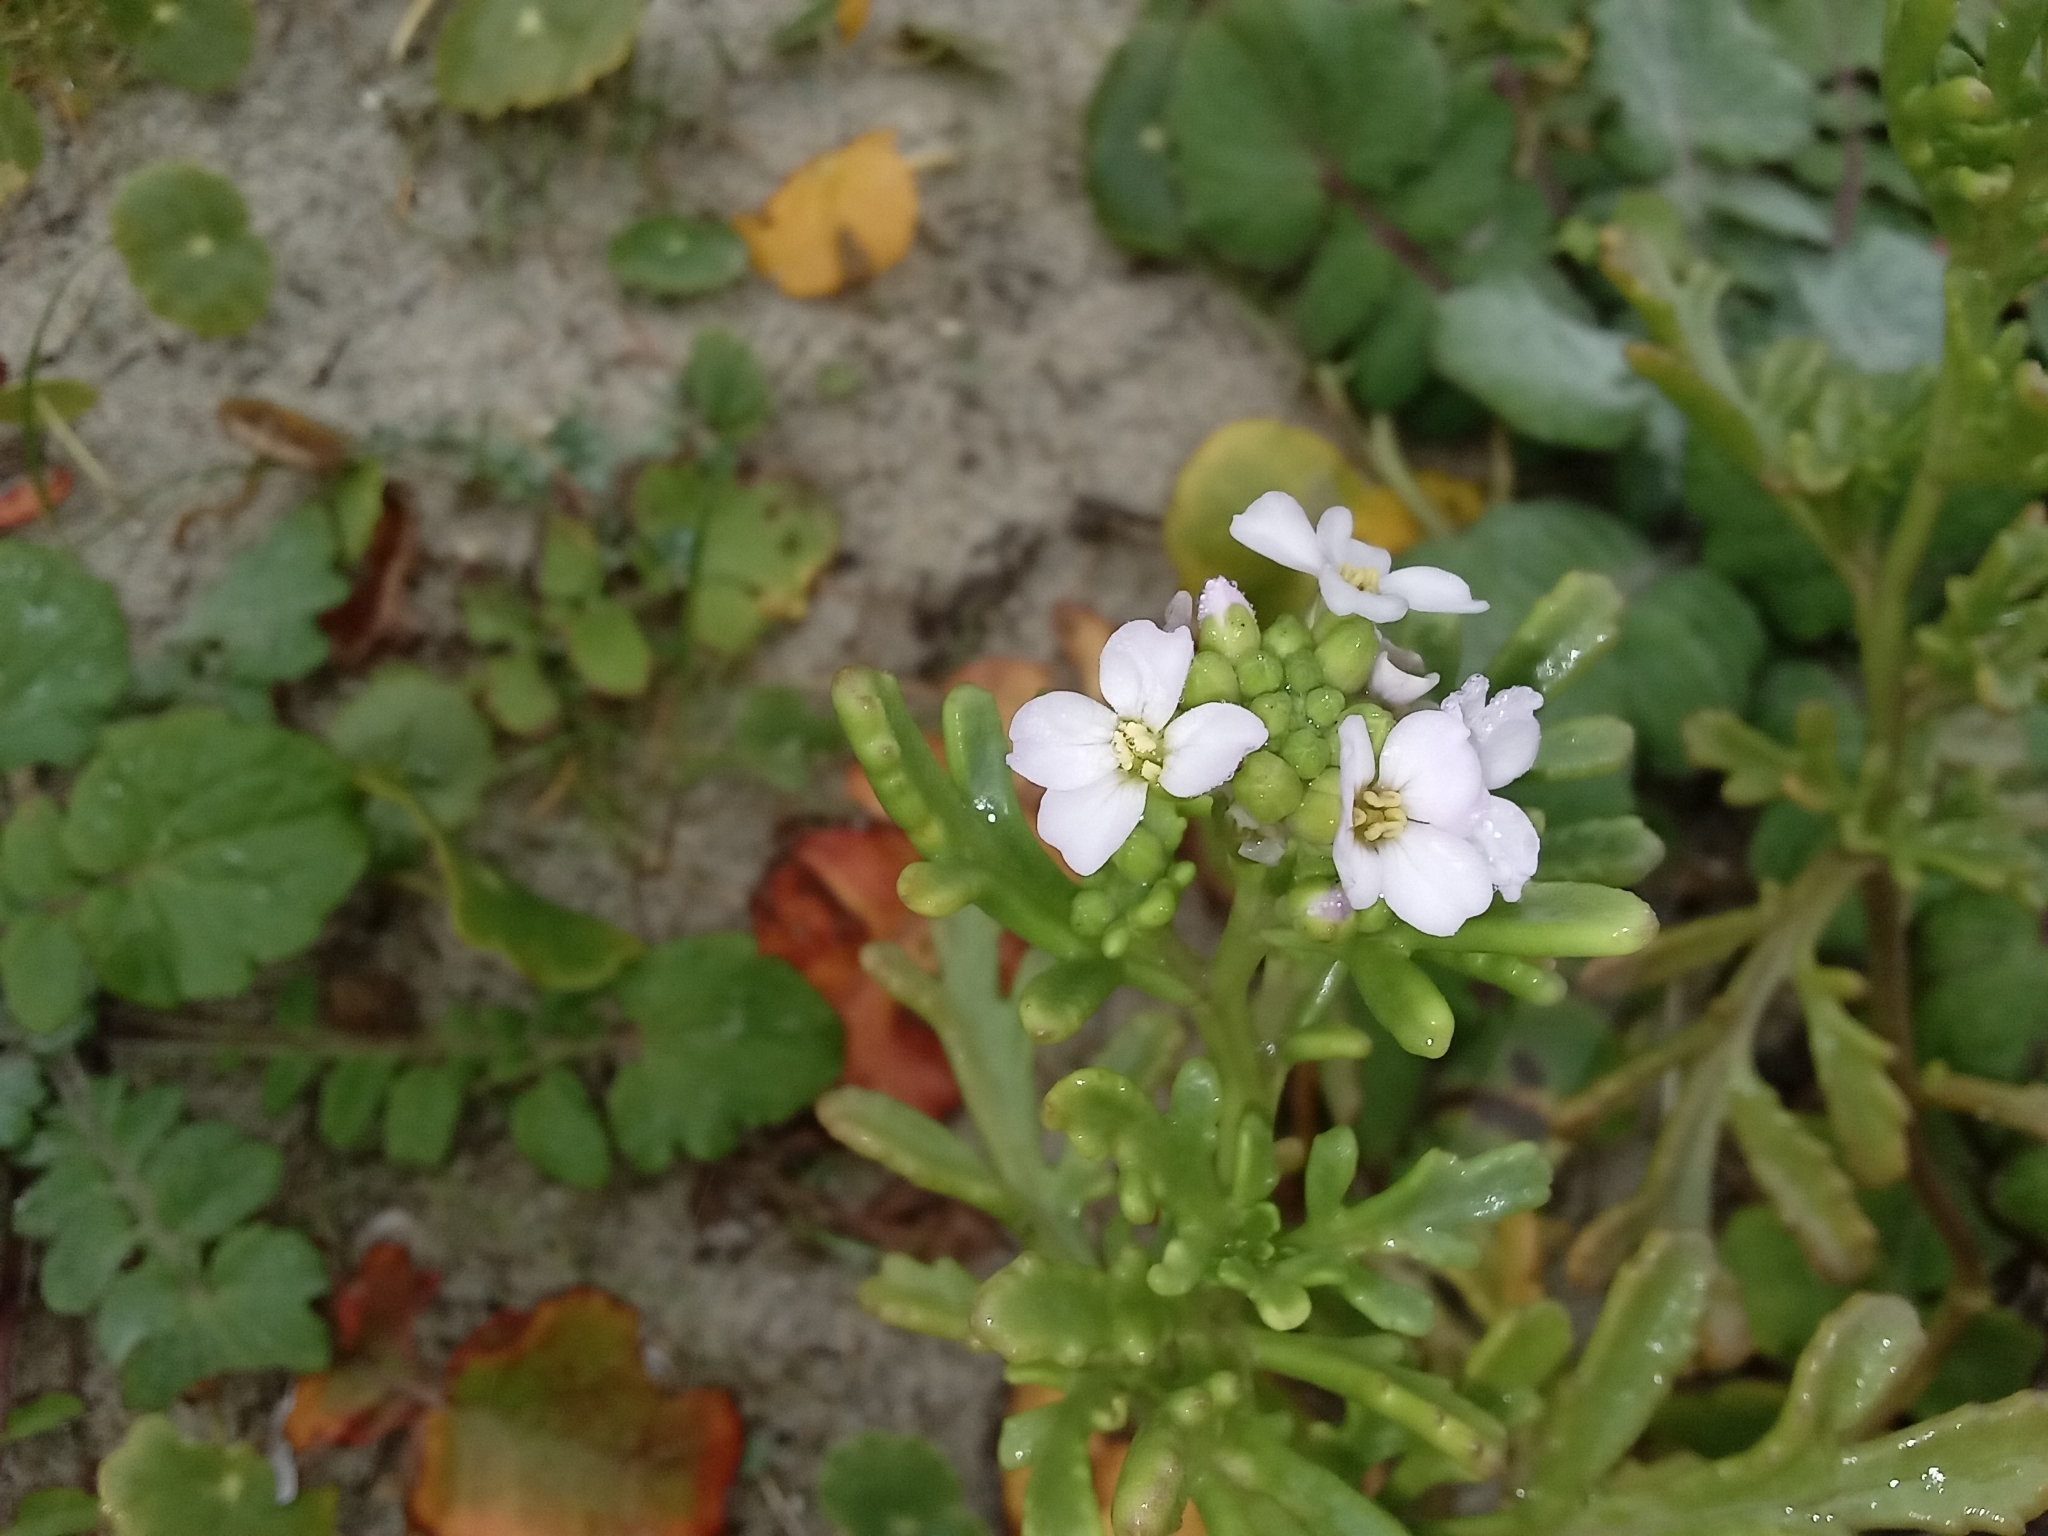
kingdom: Plantae
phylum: Tracheophyta
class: Magnoliopsida
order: Brassicales
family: Brassicaceae
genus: Cakile
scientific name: Cakile maritima
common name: Sea rocket
